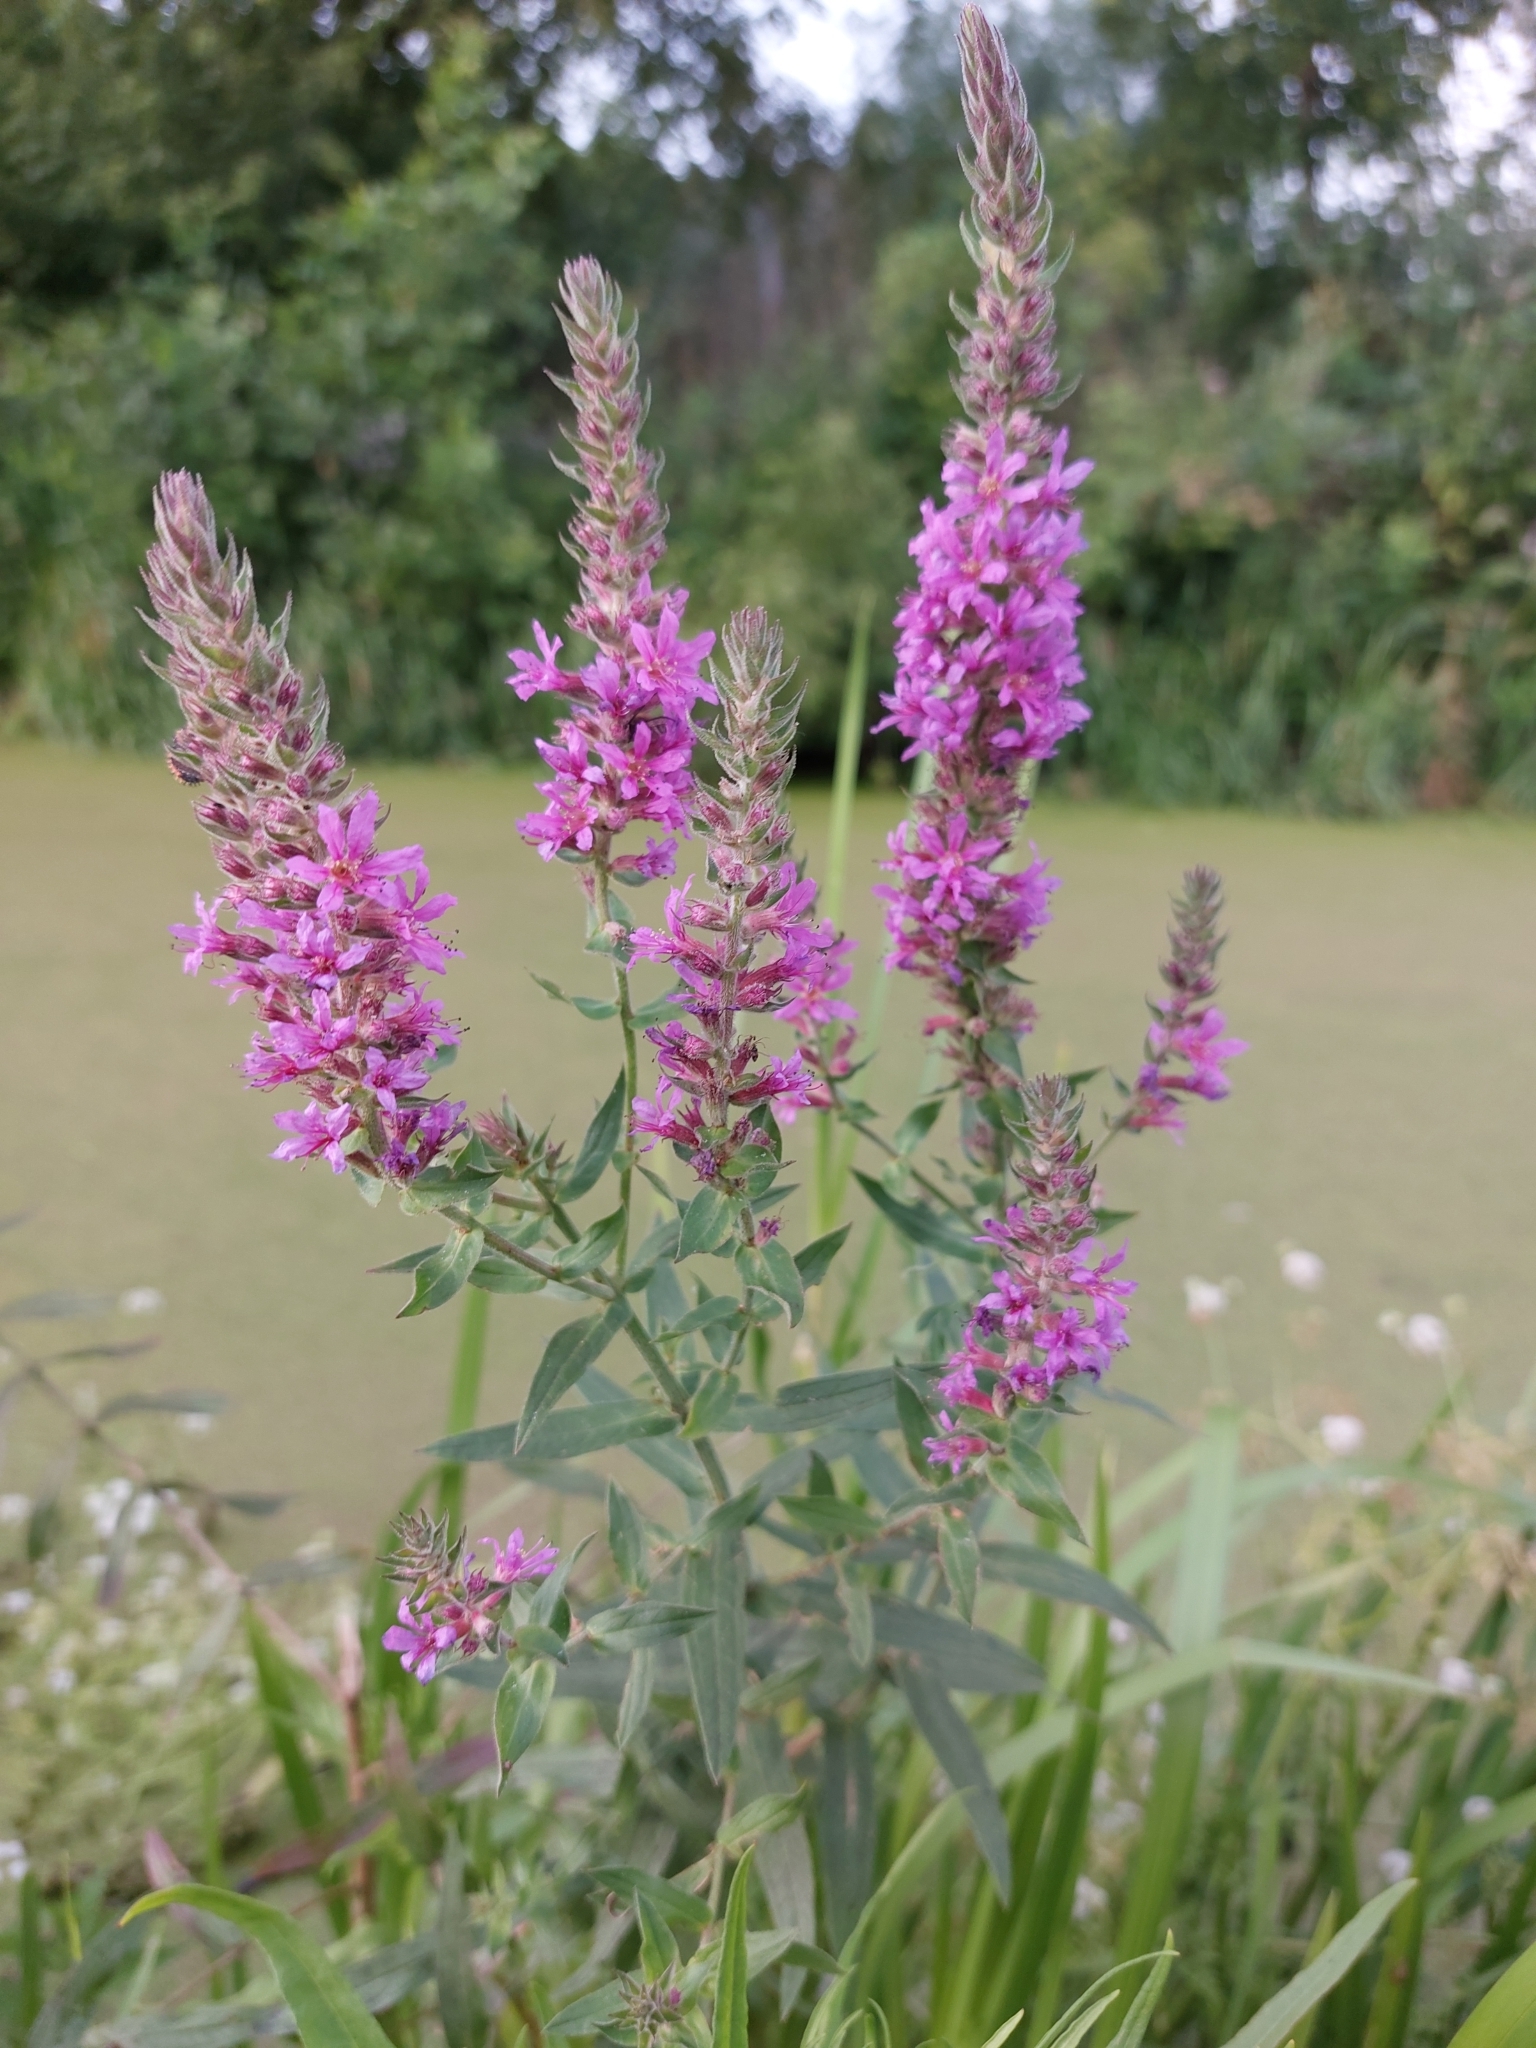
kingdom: Plantae
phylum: Tracheophyta
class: Magnoliopsida
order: Myrtales
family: Lythraceae
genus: Lythrum
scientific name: Lythrum salicaria
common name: Purple loosestrife
